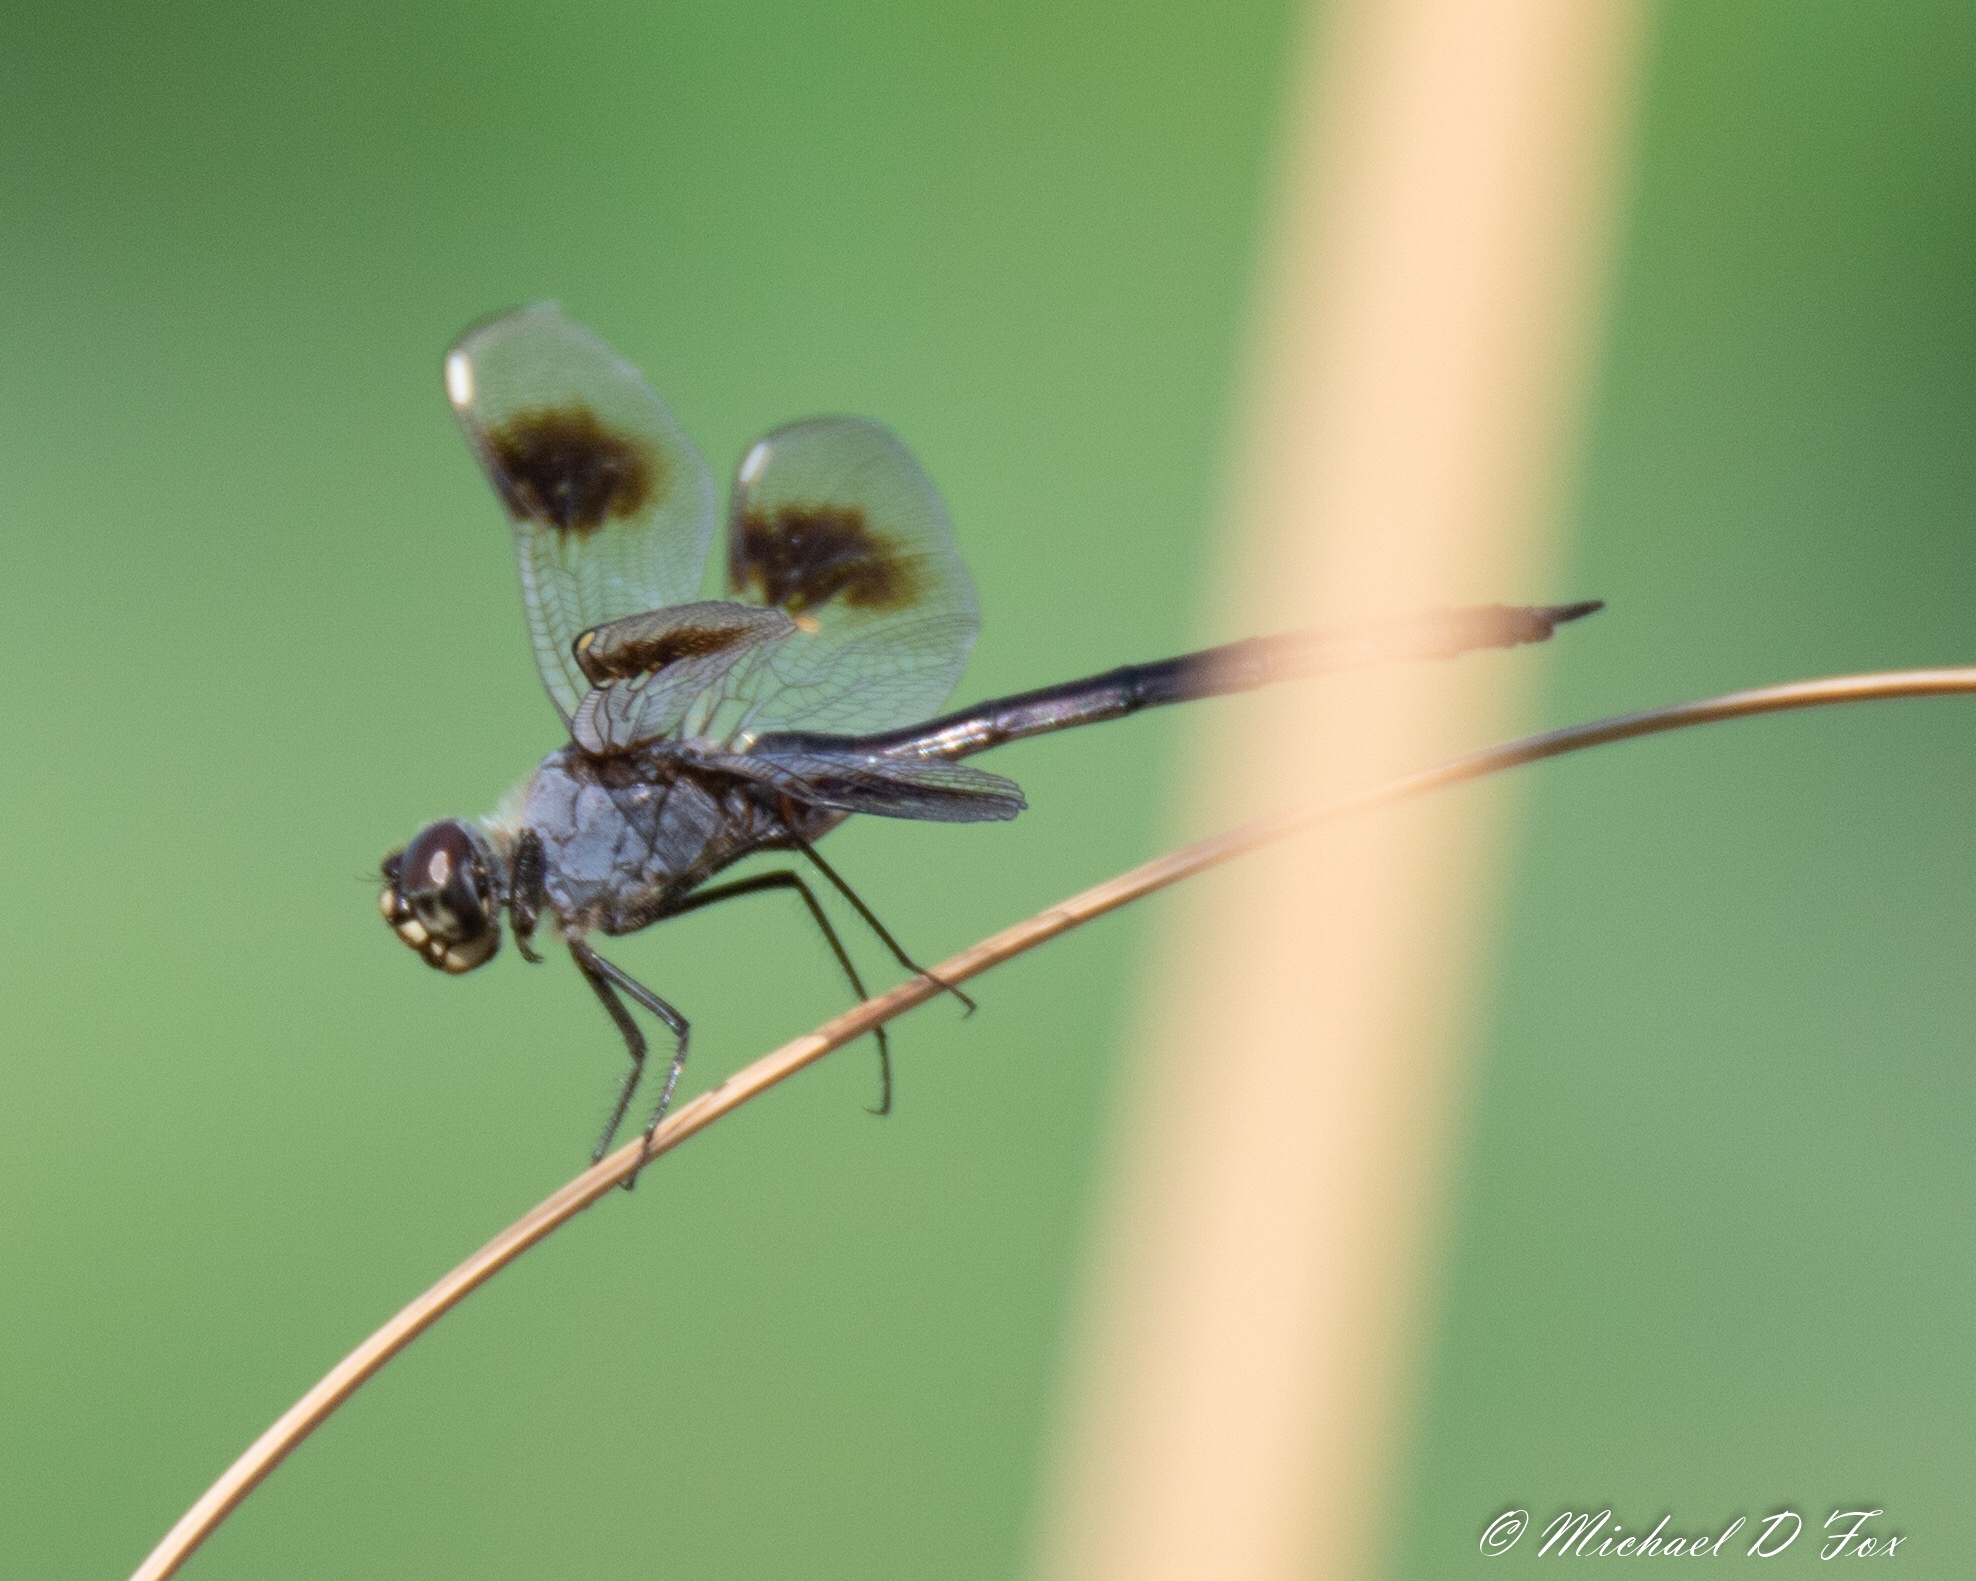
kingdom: Animalia
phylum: Arthropoda
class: Insecta
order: Odonata
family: Libellulidae
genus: Brachymesia
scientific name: Brachymesia gravida
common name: Four-spotted pennant
